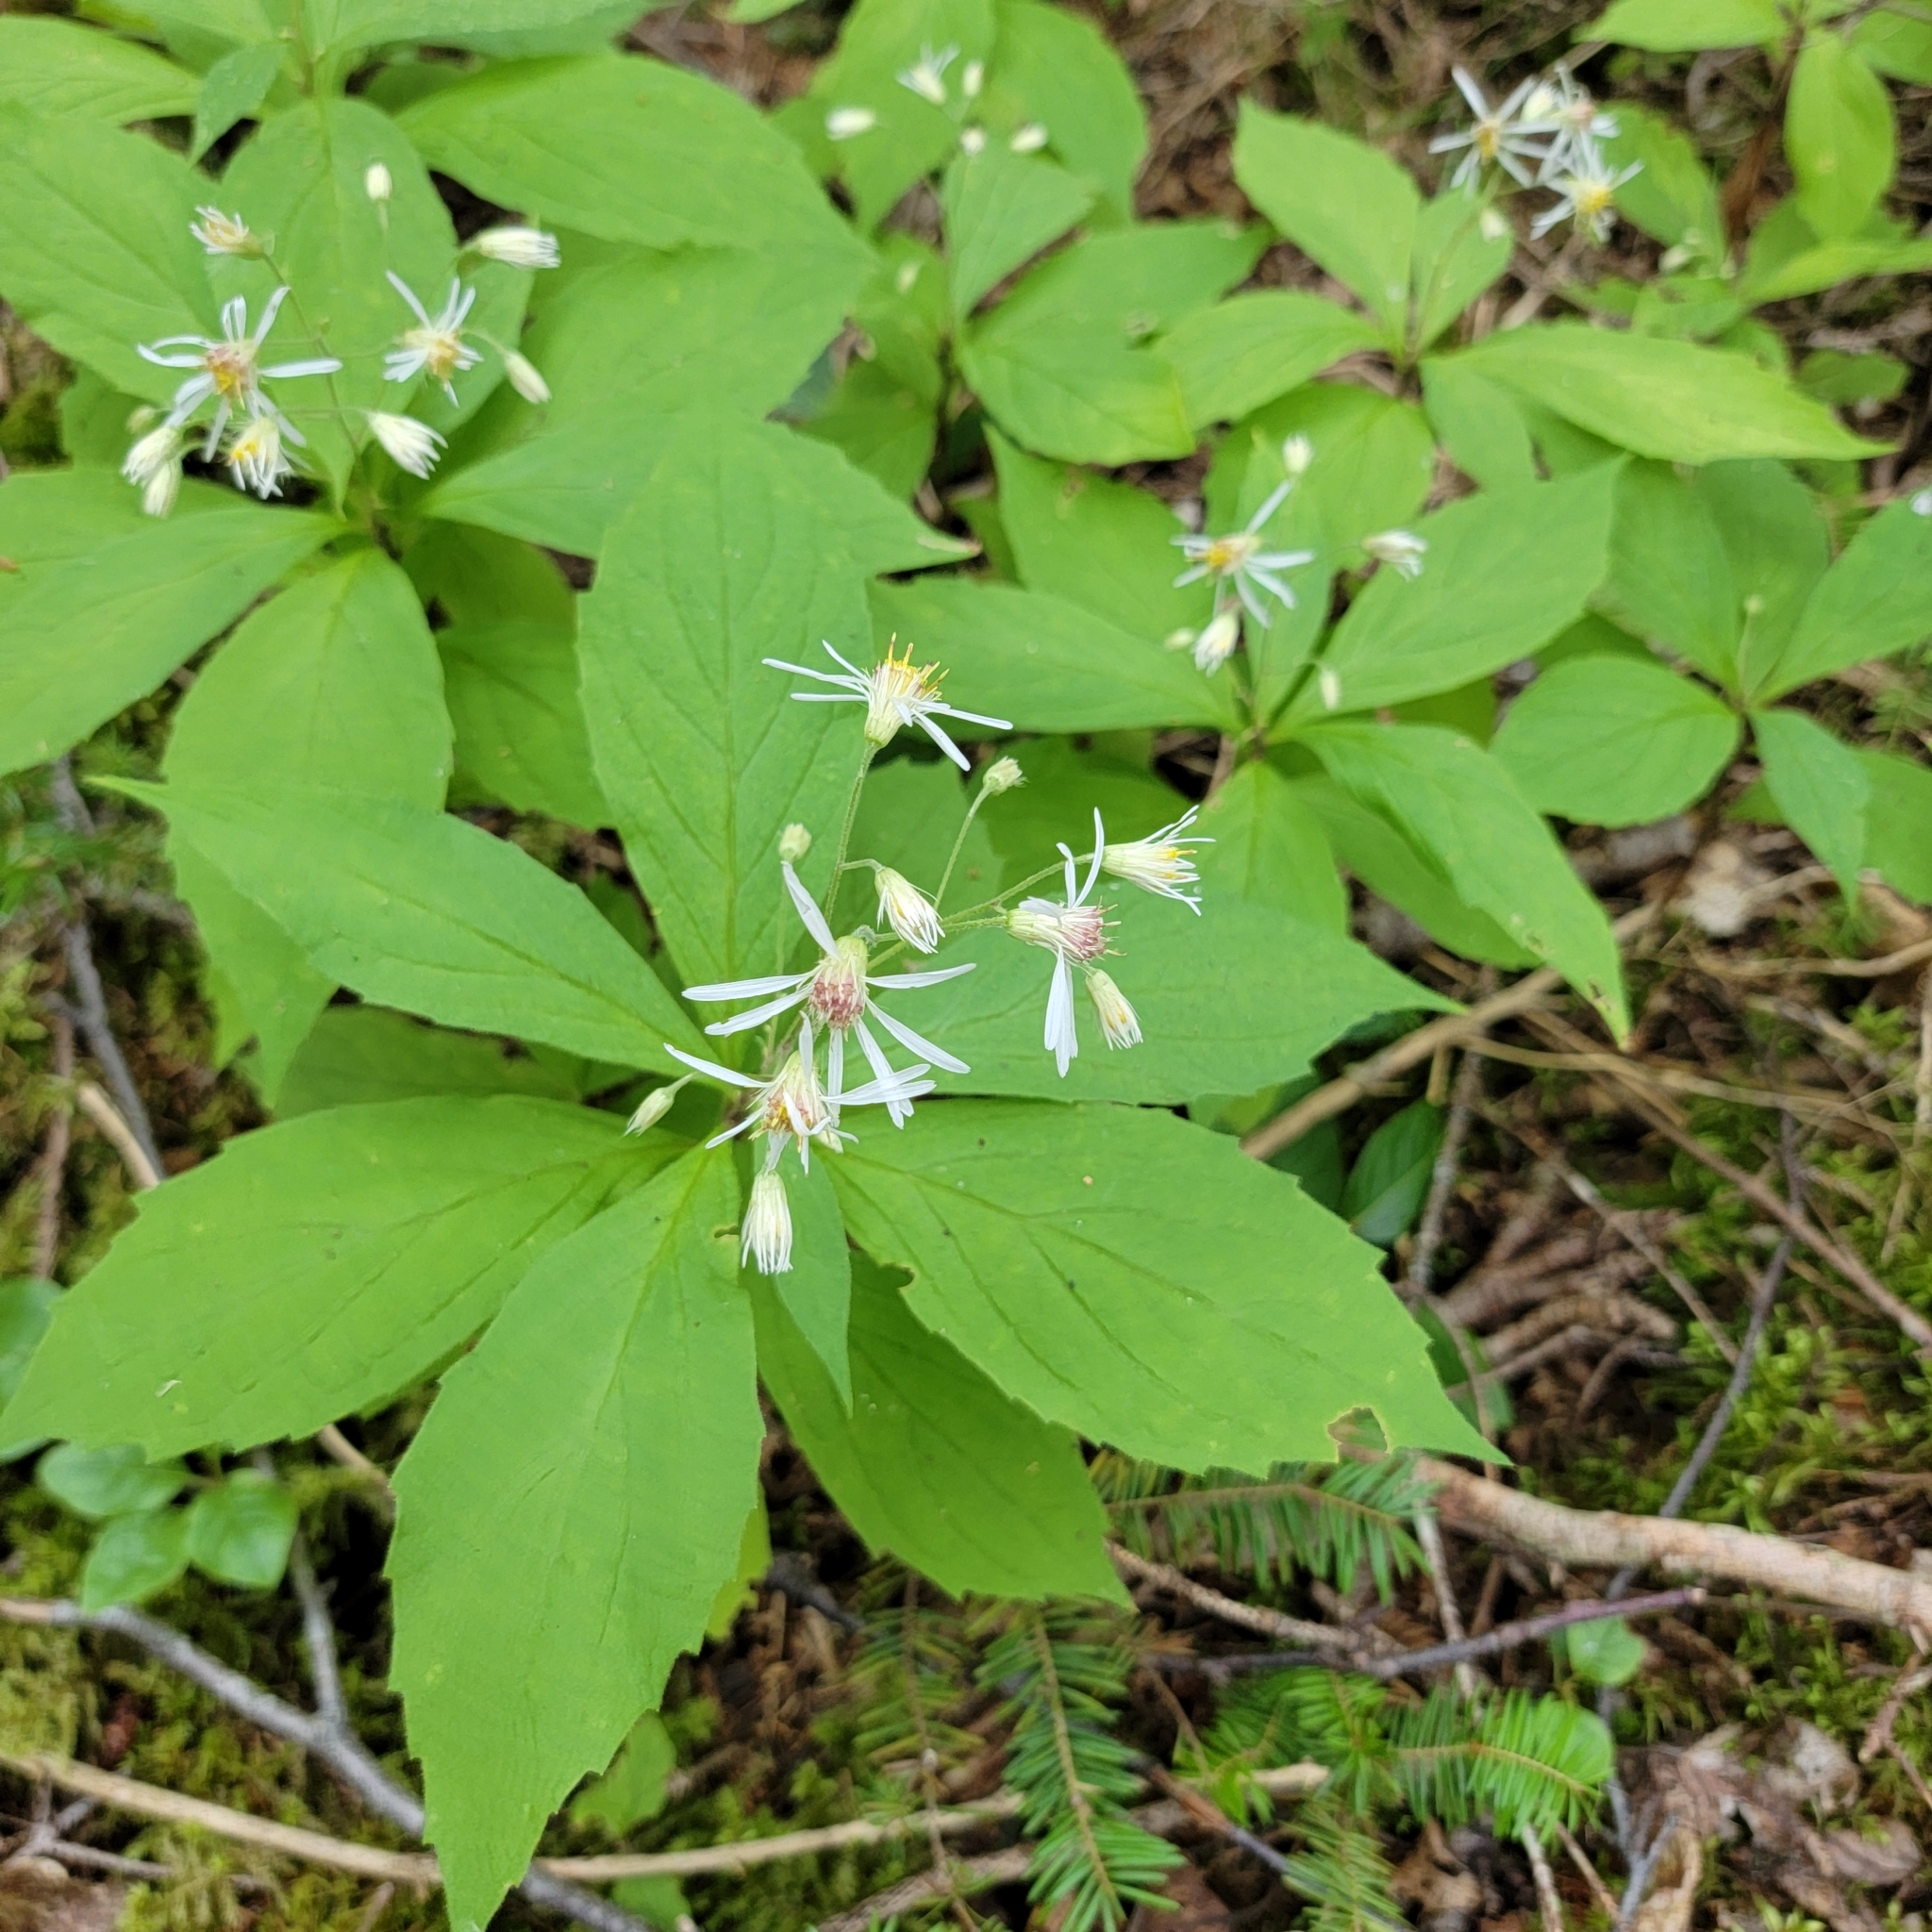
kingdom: Plantae
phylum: Tracheophyta
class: Magnoliopsida
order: Asterales
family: Asteraceae
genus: Oclemena
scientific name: Oclemena acuminata
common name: Mountain aster
